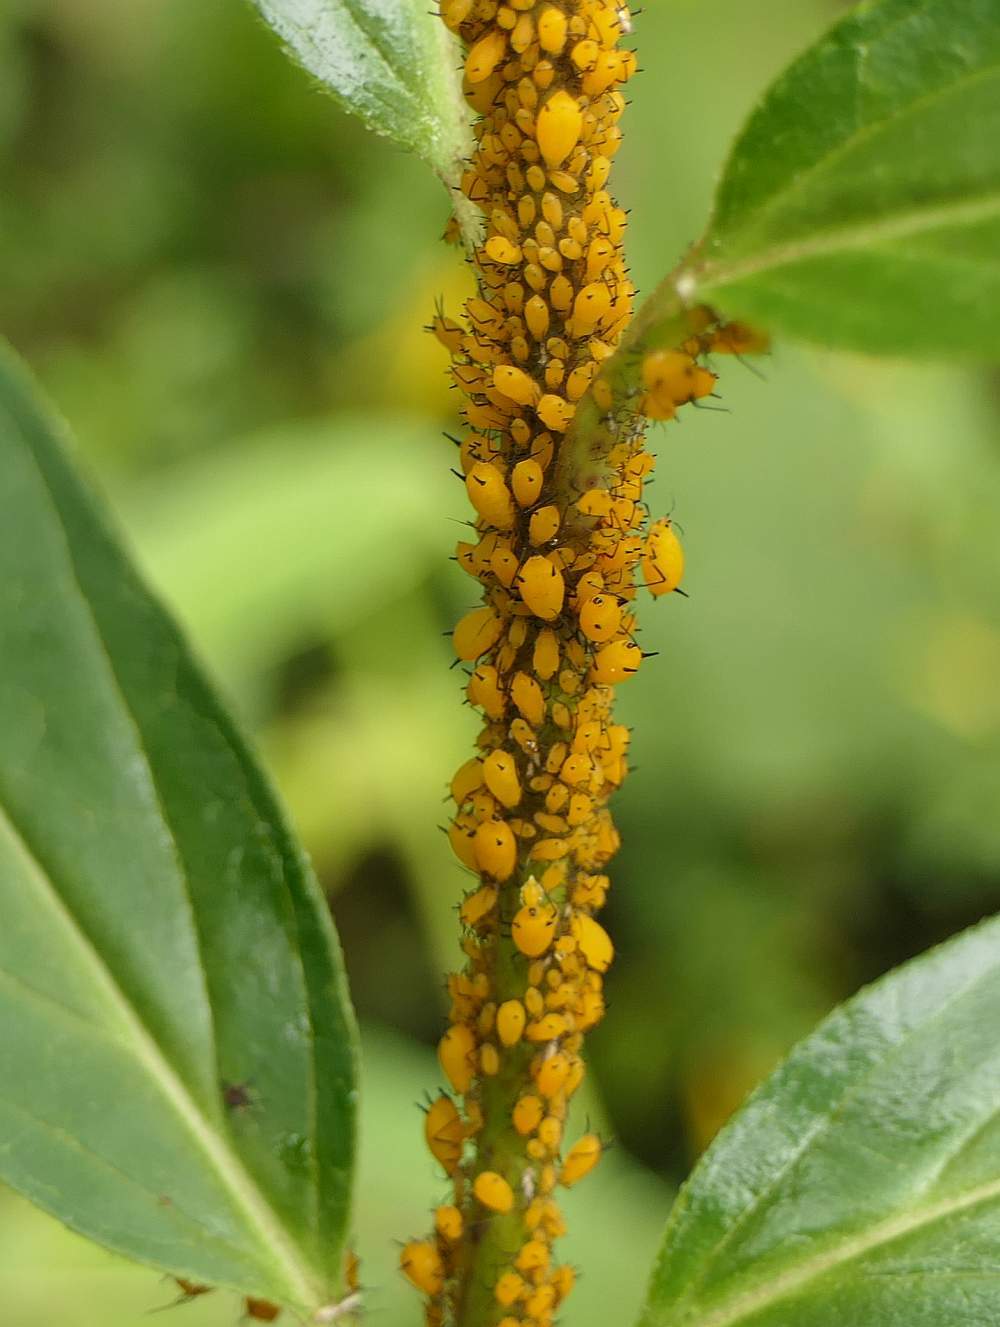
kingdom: Animalia
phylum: Arthropoda
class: Insecta
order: Hemiptera
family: Aphididae
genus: Aphis
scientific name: Aphis nerii
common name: Oleander aphid
